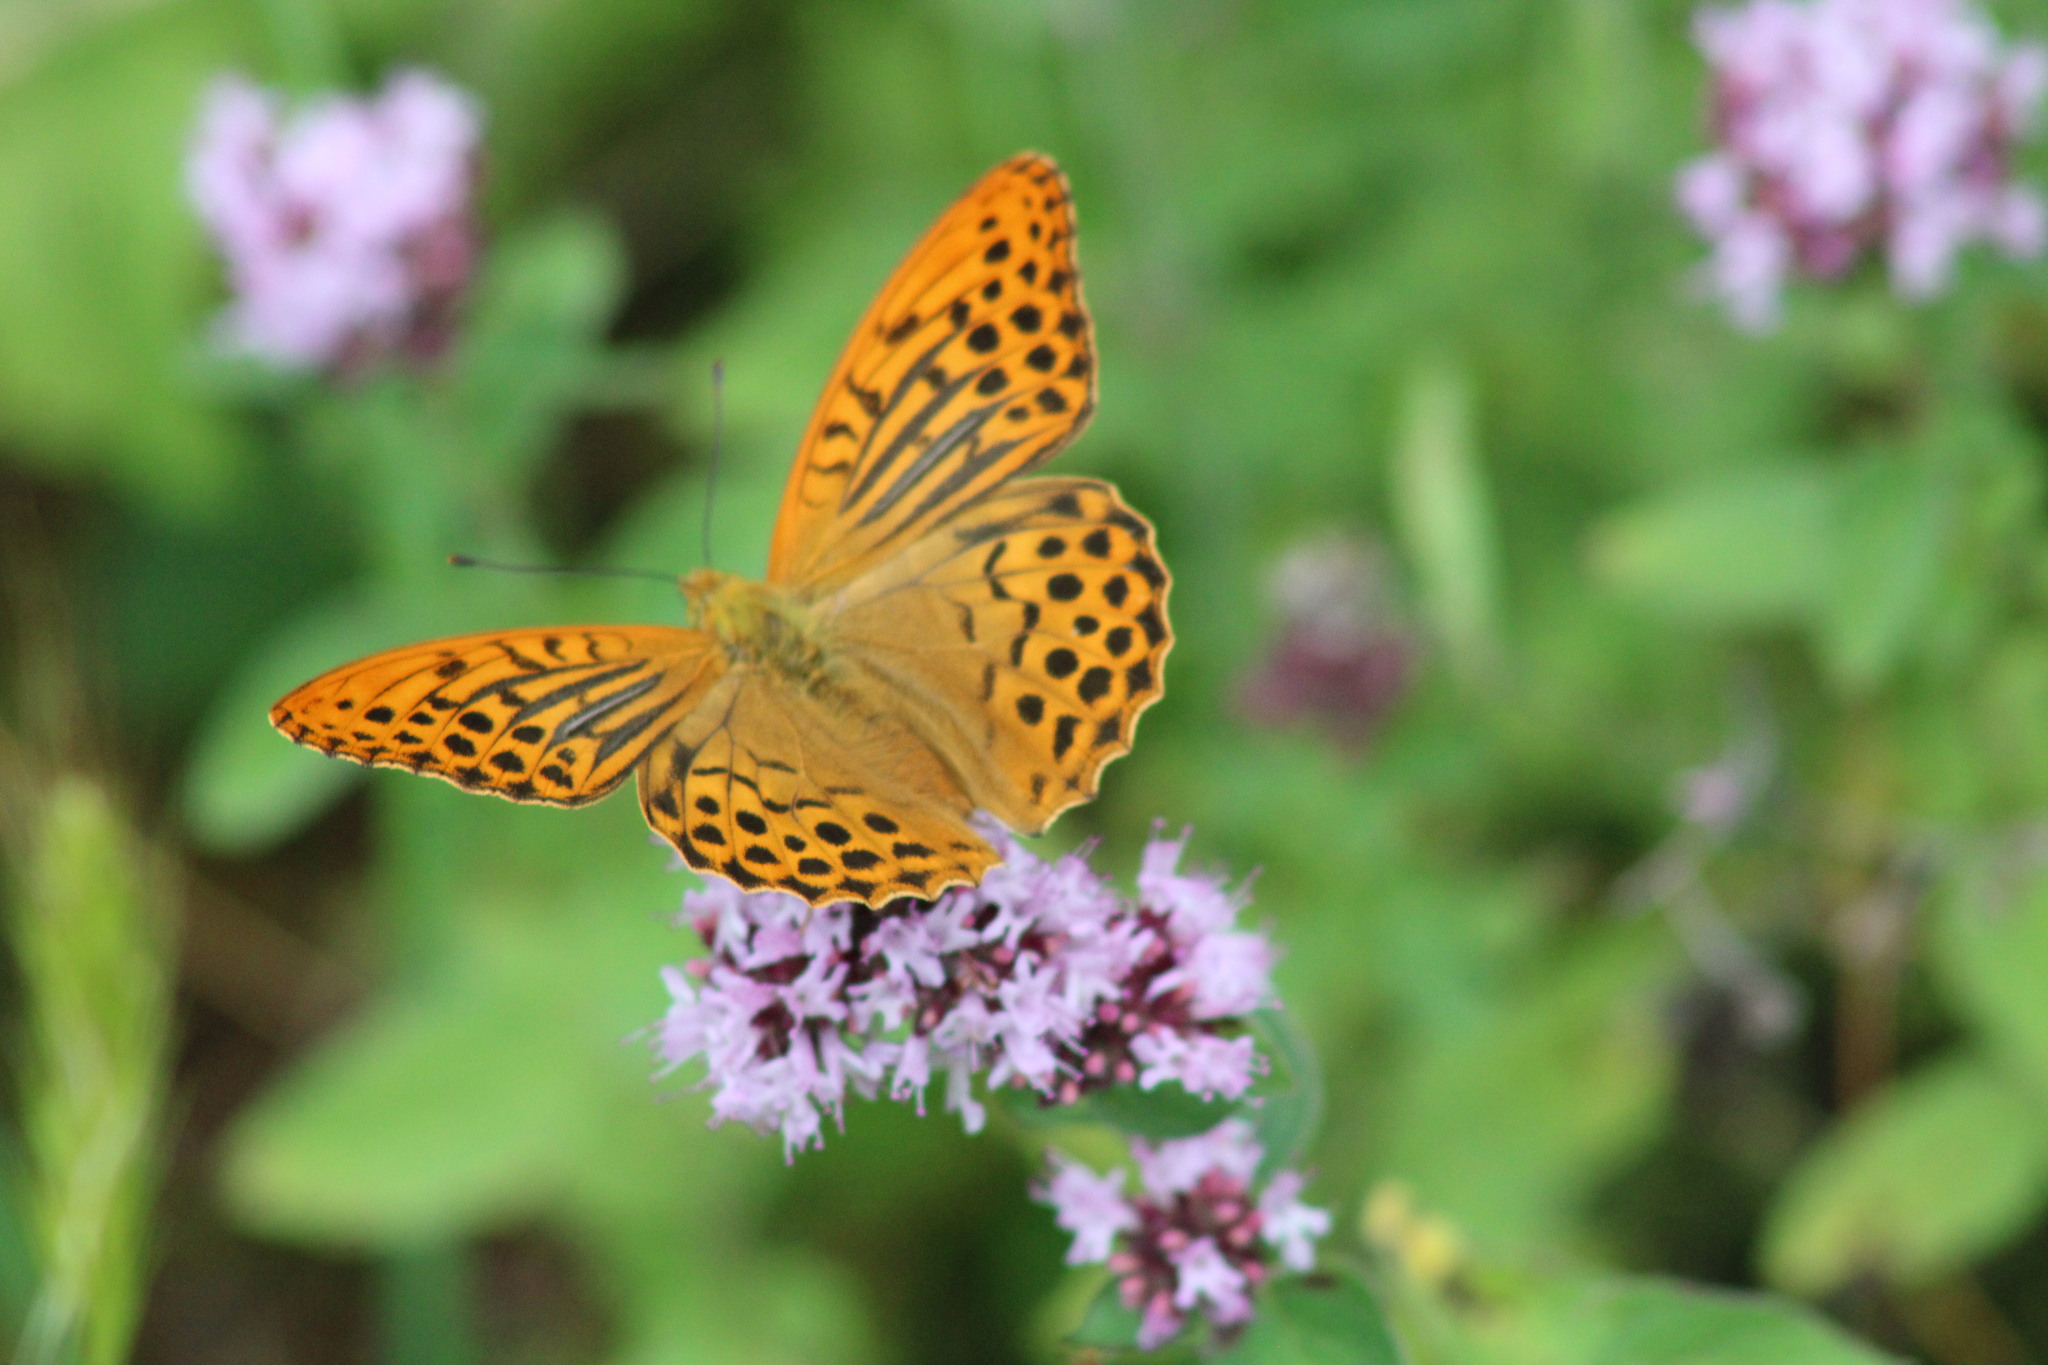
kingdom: Animalia
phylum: Arthropoda
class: Insecta
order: Lepidoptera
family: Nymphalidae
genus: Argynnis
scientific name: Argynnis paphia
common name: Silver-washed fritillary
